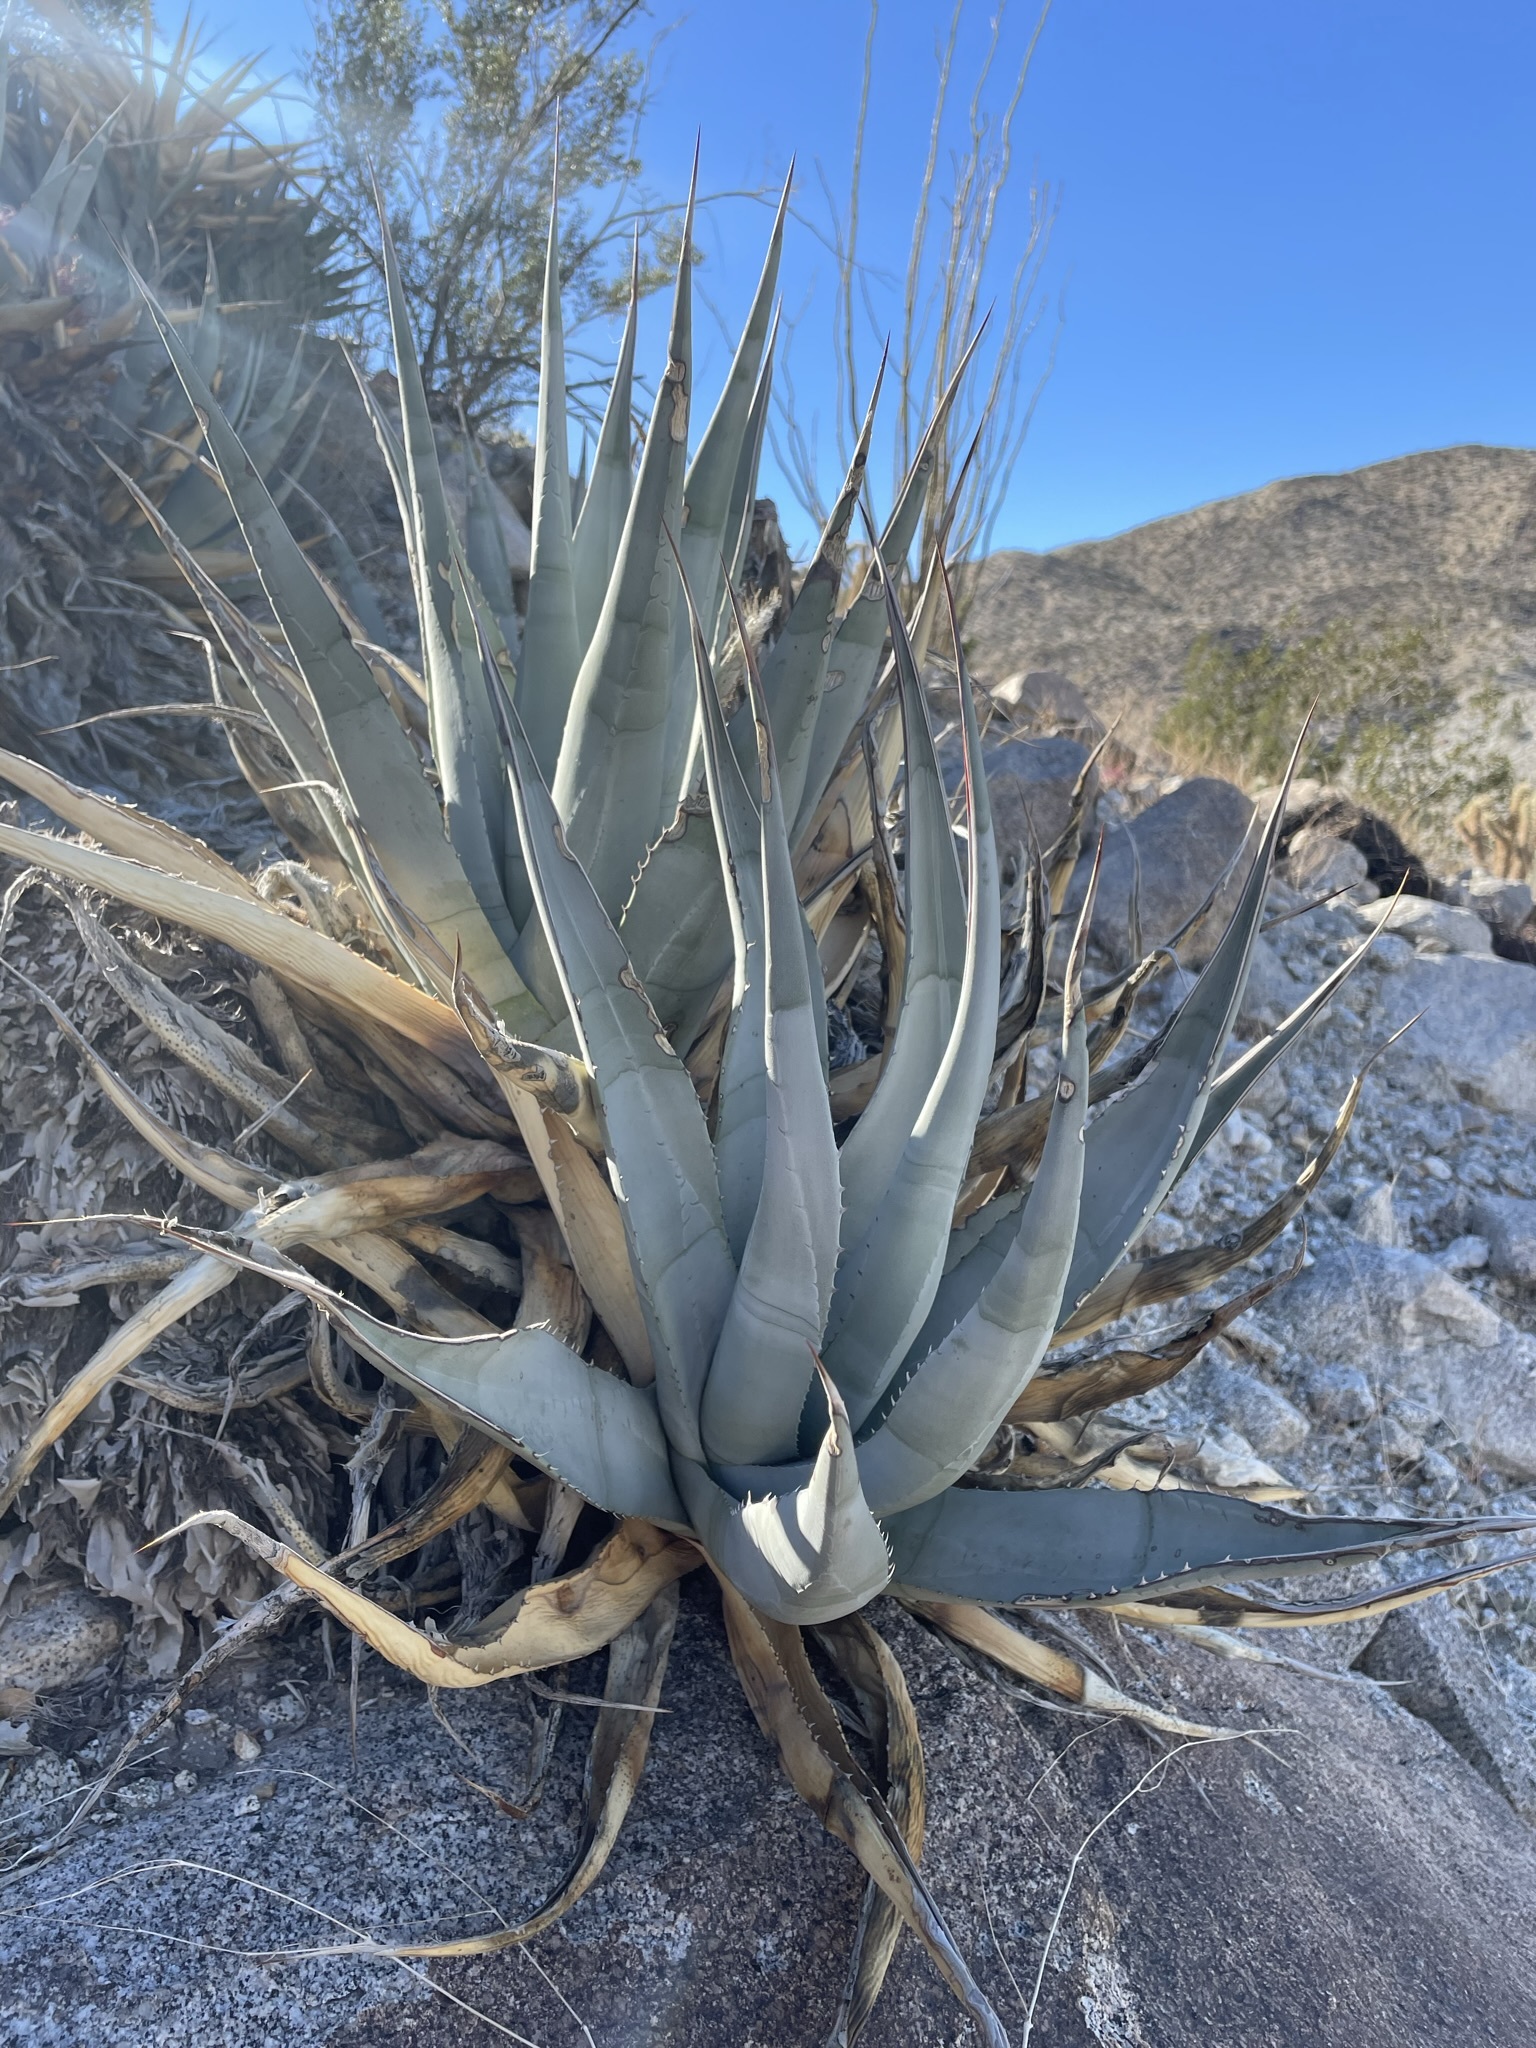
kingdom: Plantae
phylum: Tracheophyta
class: Liliopsida
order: Asparagales
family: Asparagaceae
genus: Agave
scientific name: Agave deserti
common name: Desert agave
